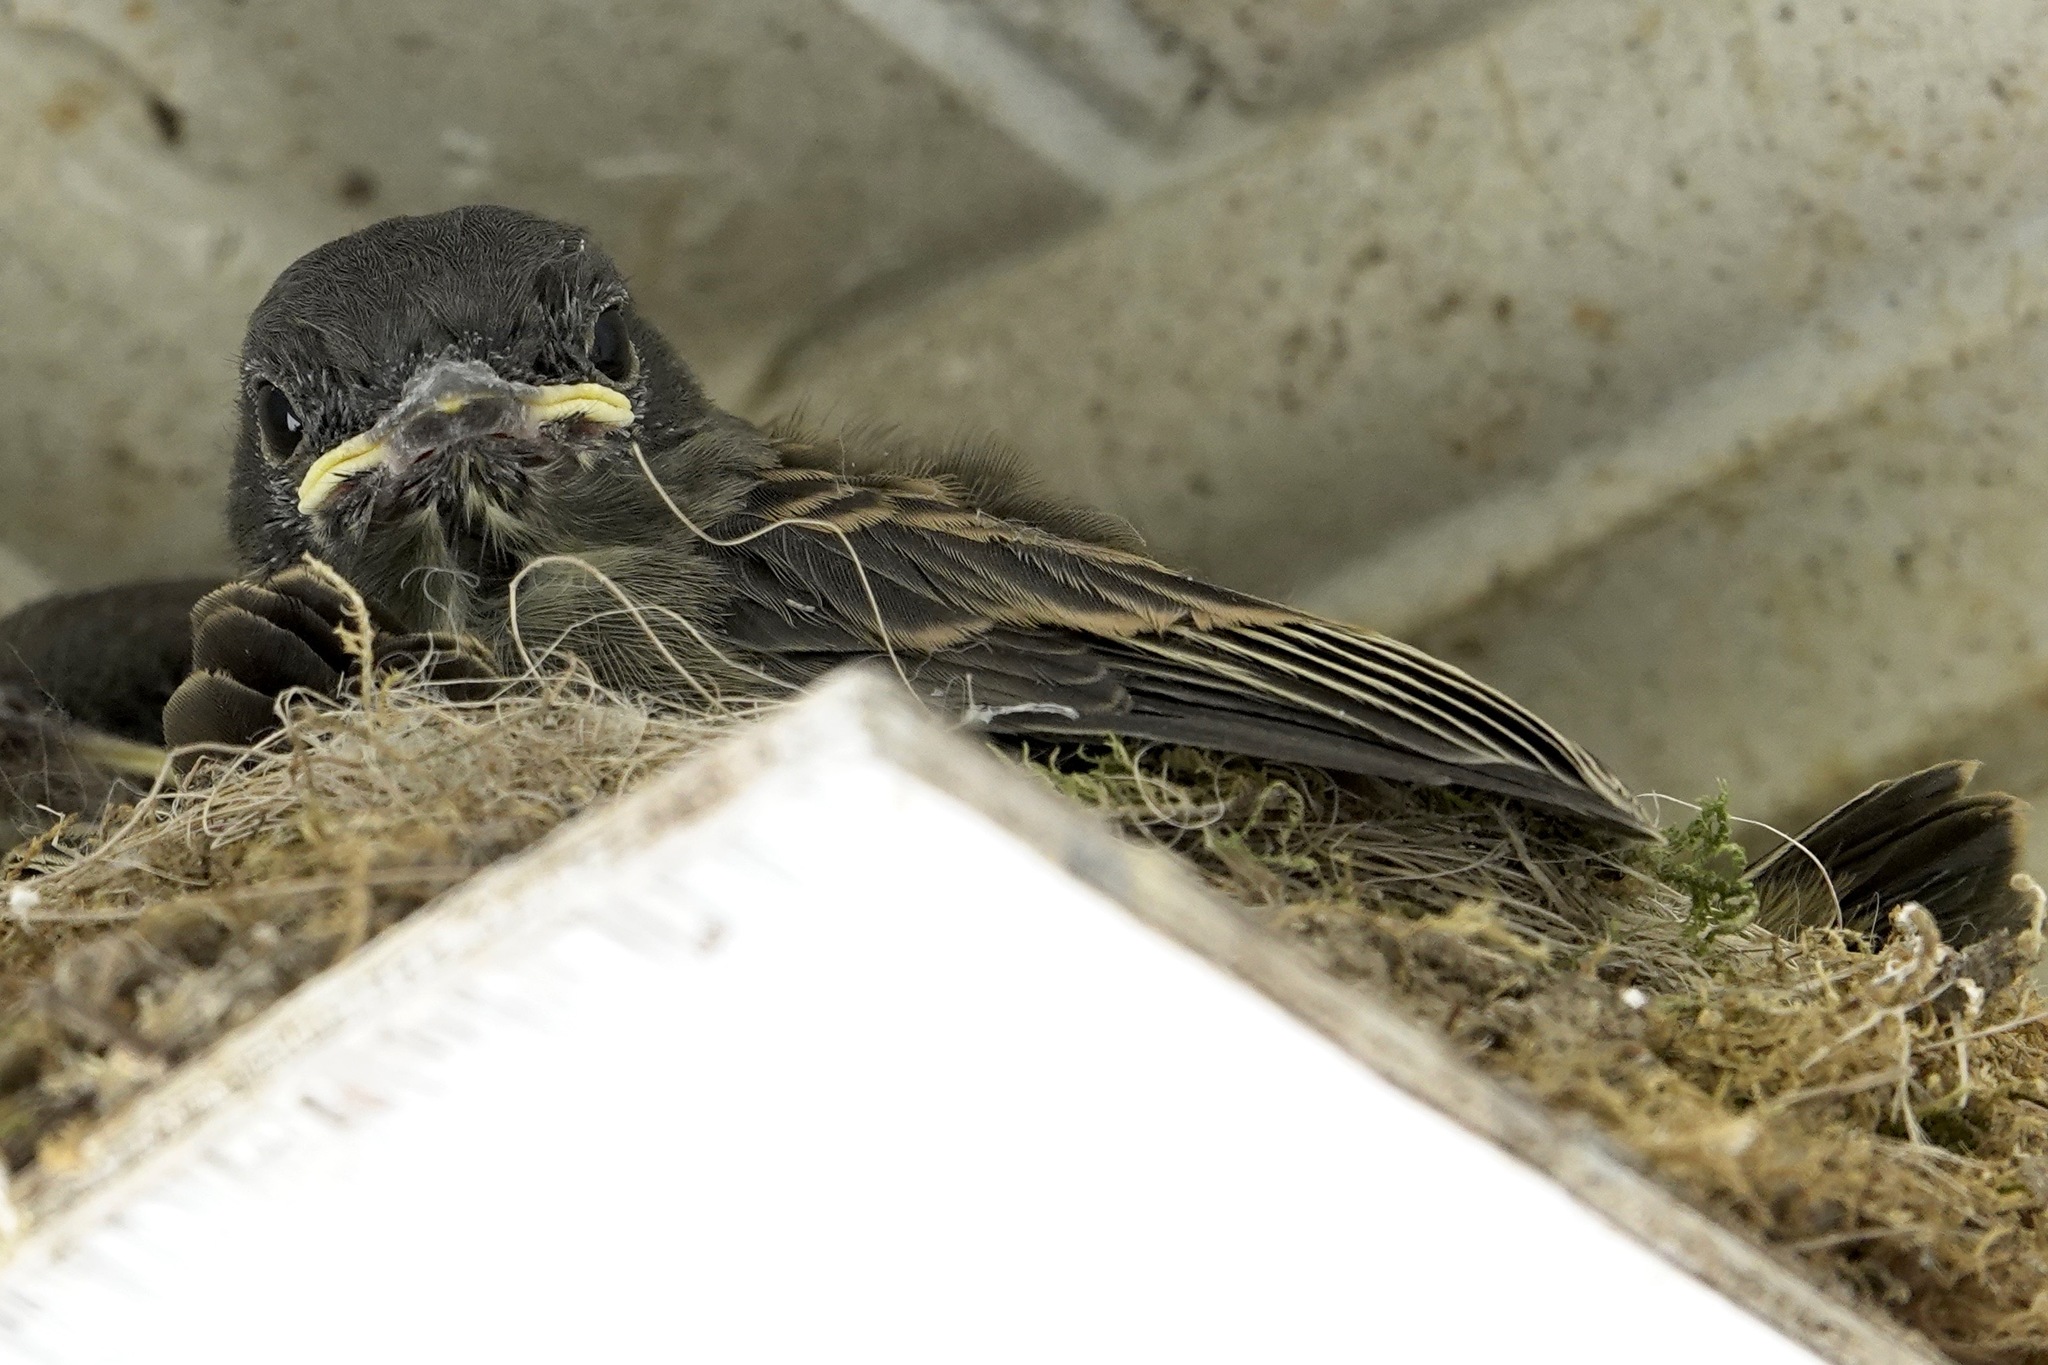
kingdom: Animalia
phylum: Chordata
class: Aves
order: Passeriformes
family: Tyrannidae
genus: Sayornis
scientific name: Sayornis phoebe
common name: Eastern phoebe
